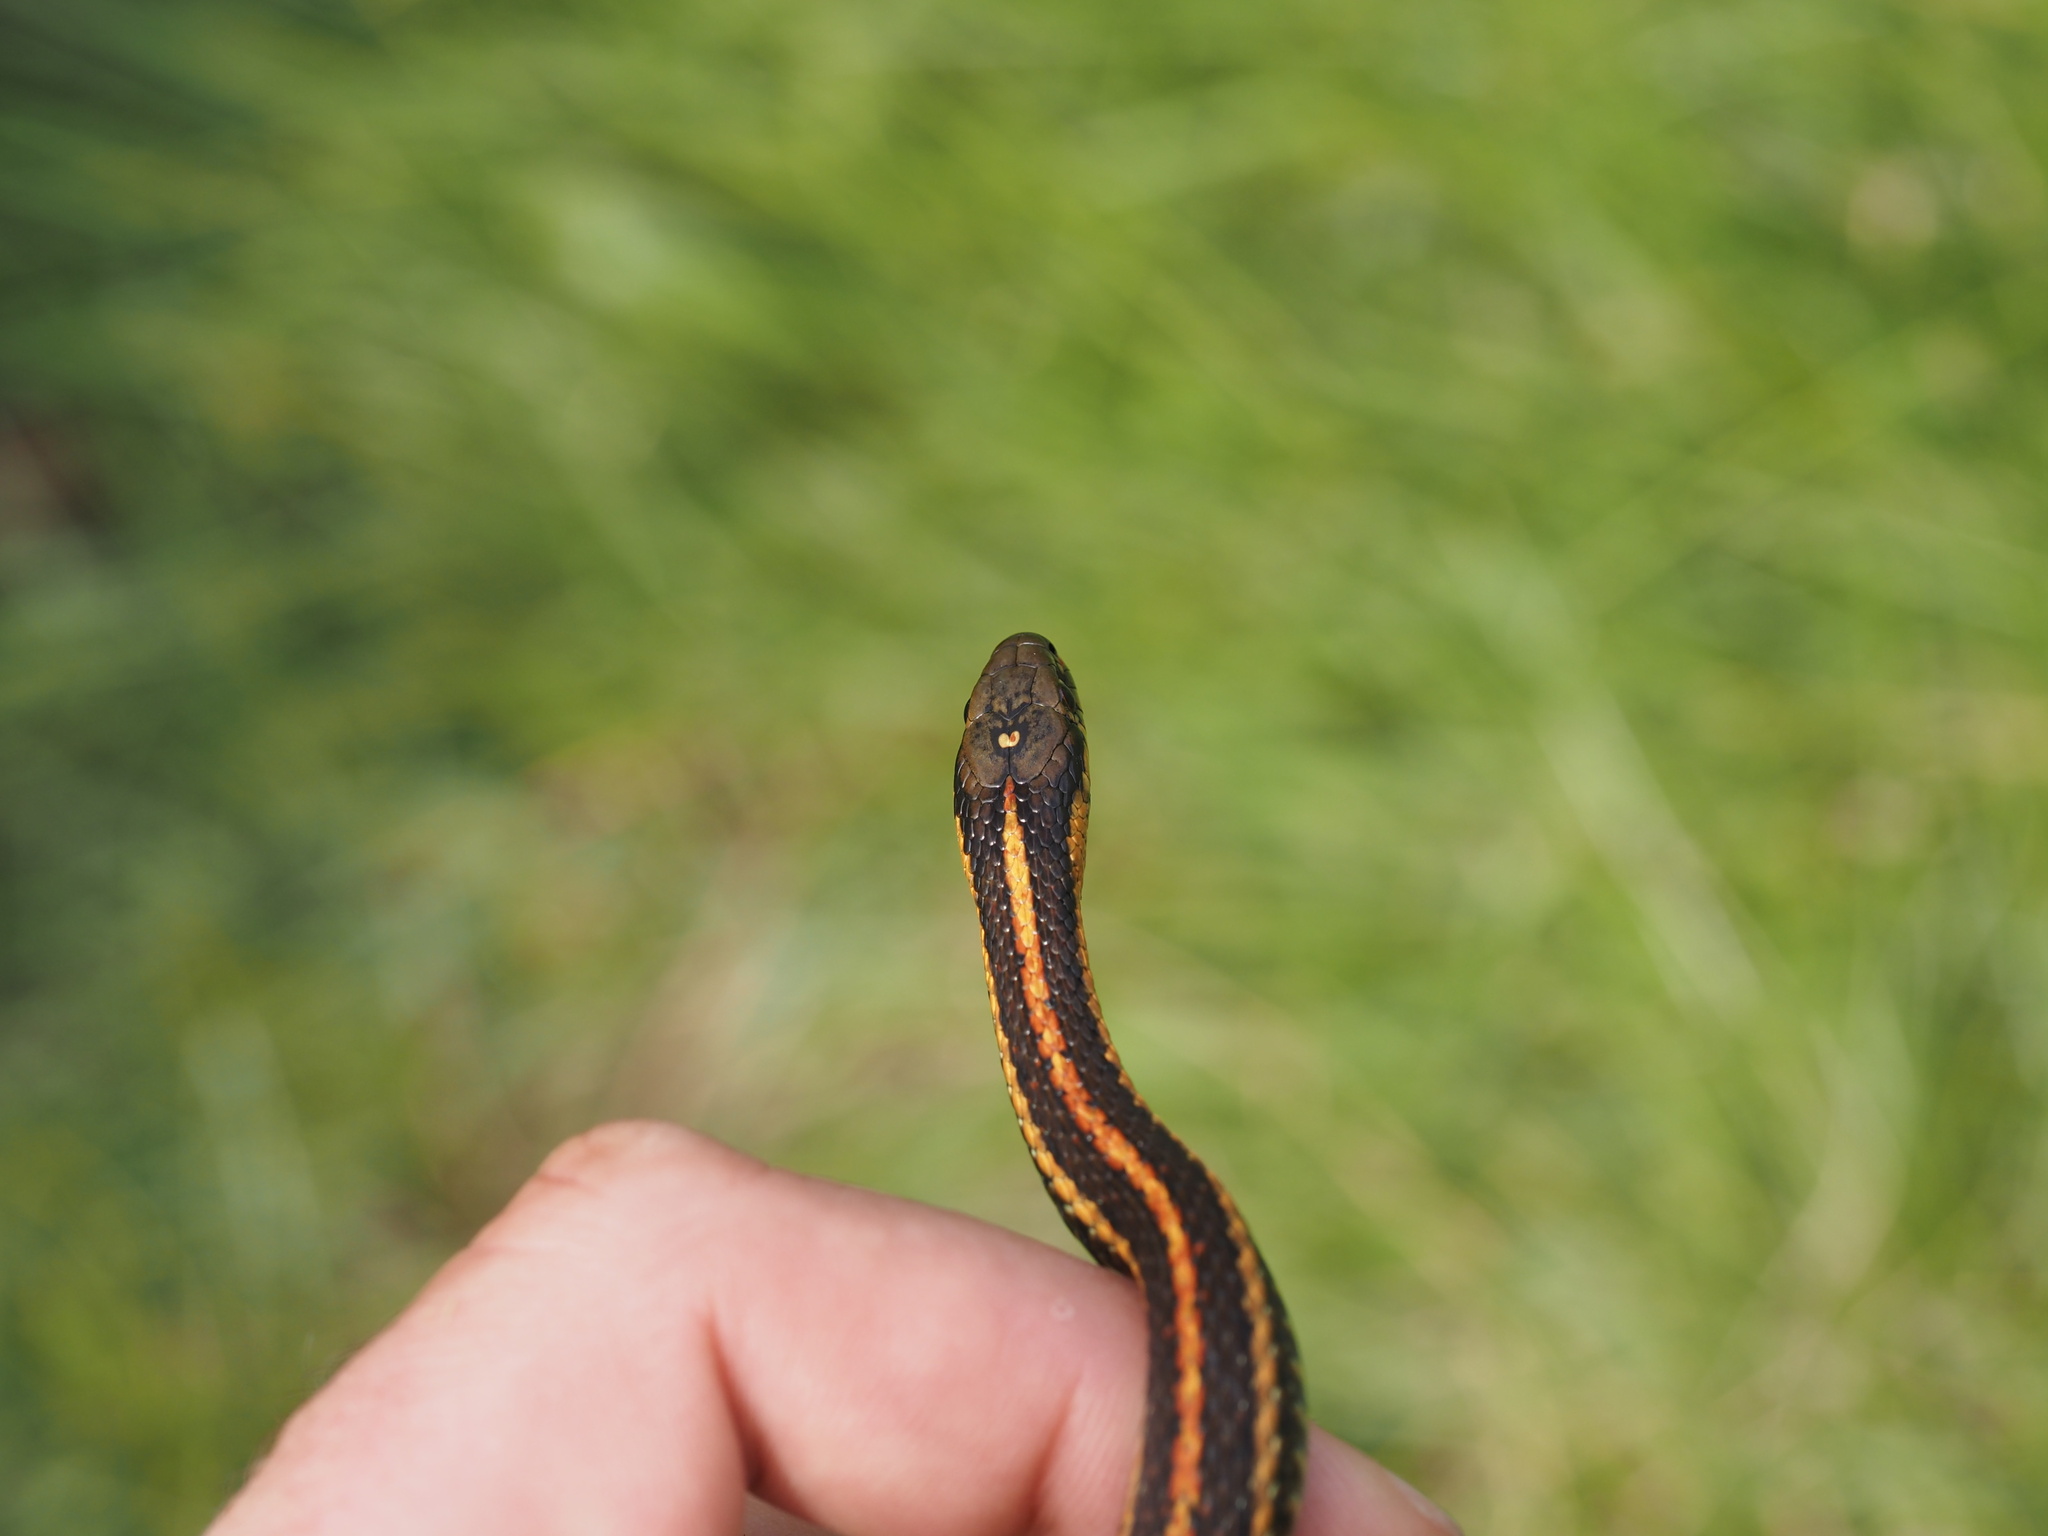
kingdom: Animalia
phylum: Chordata
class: Squamata
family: Colubridae
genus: Thamnophis
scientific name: Thamnophis ordinoides
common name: Northwestern garter snake
